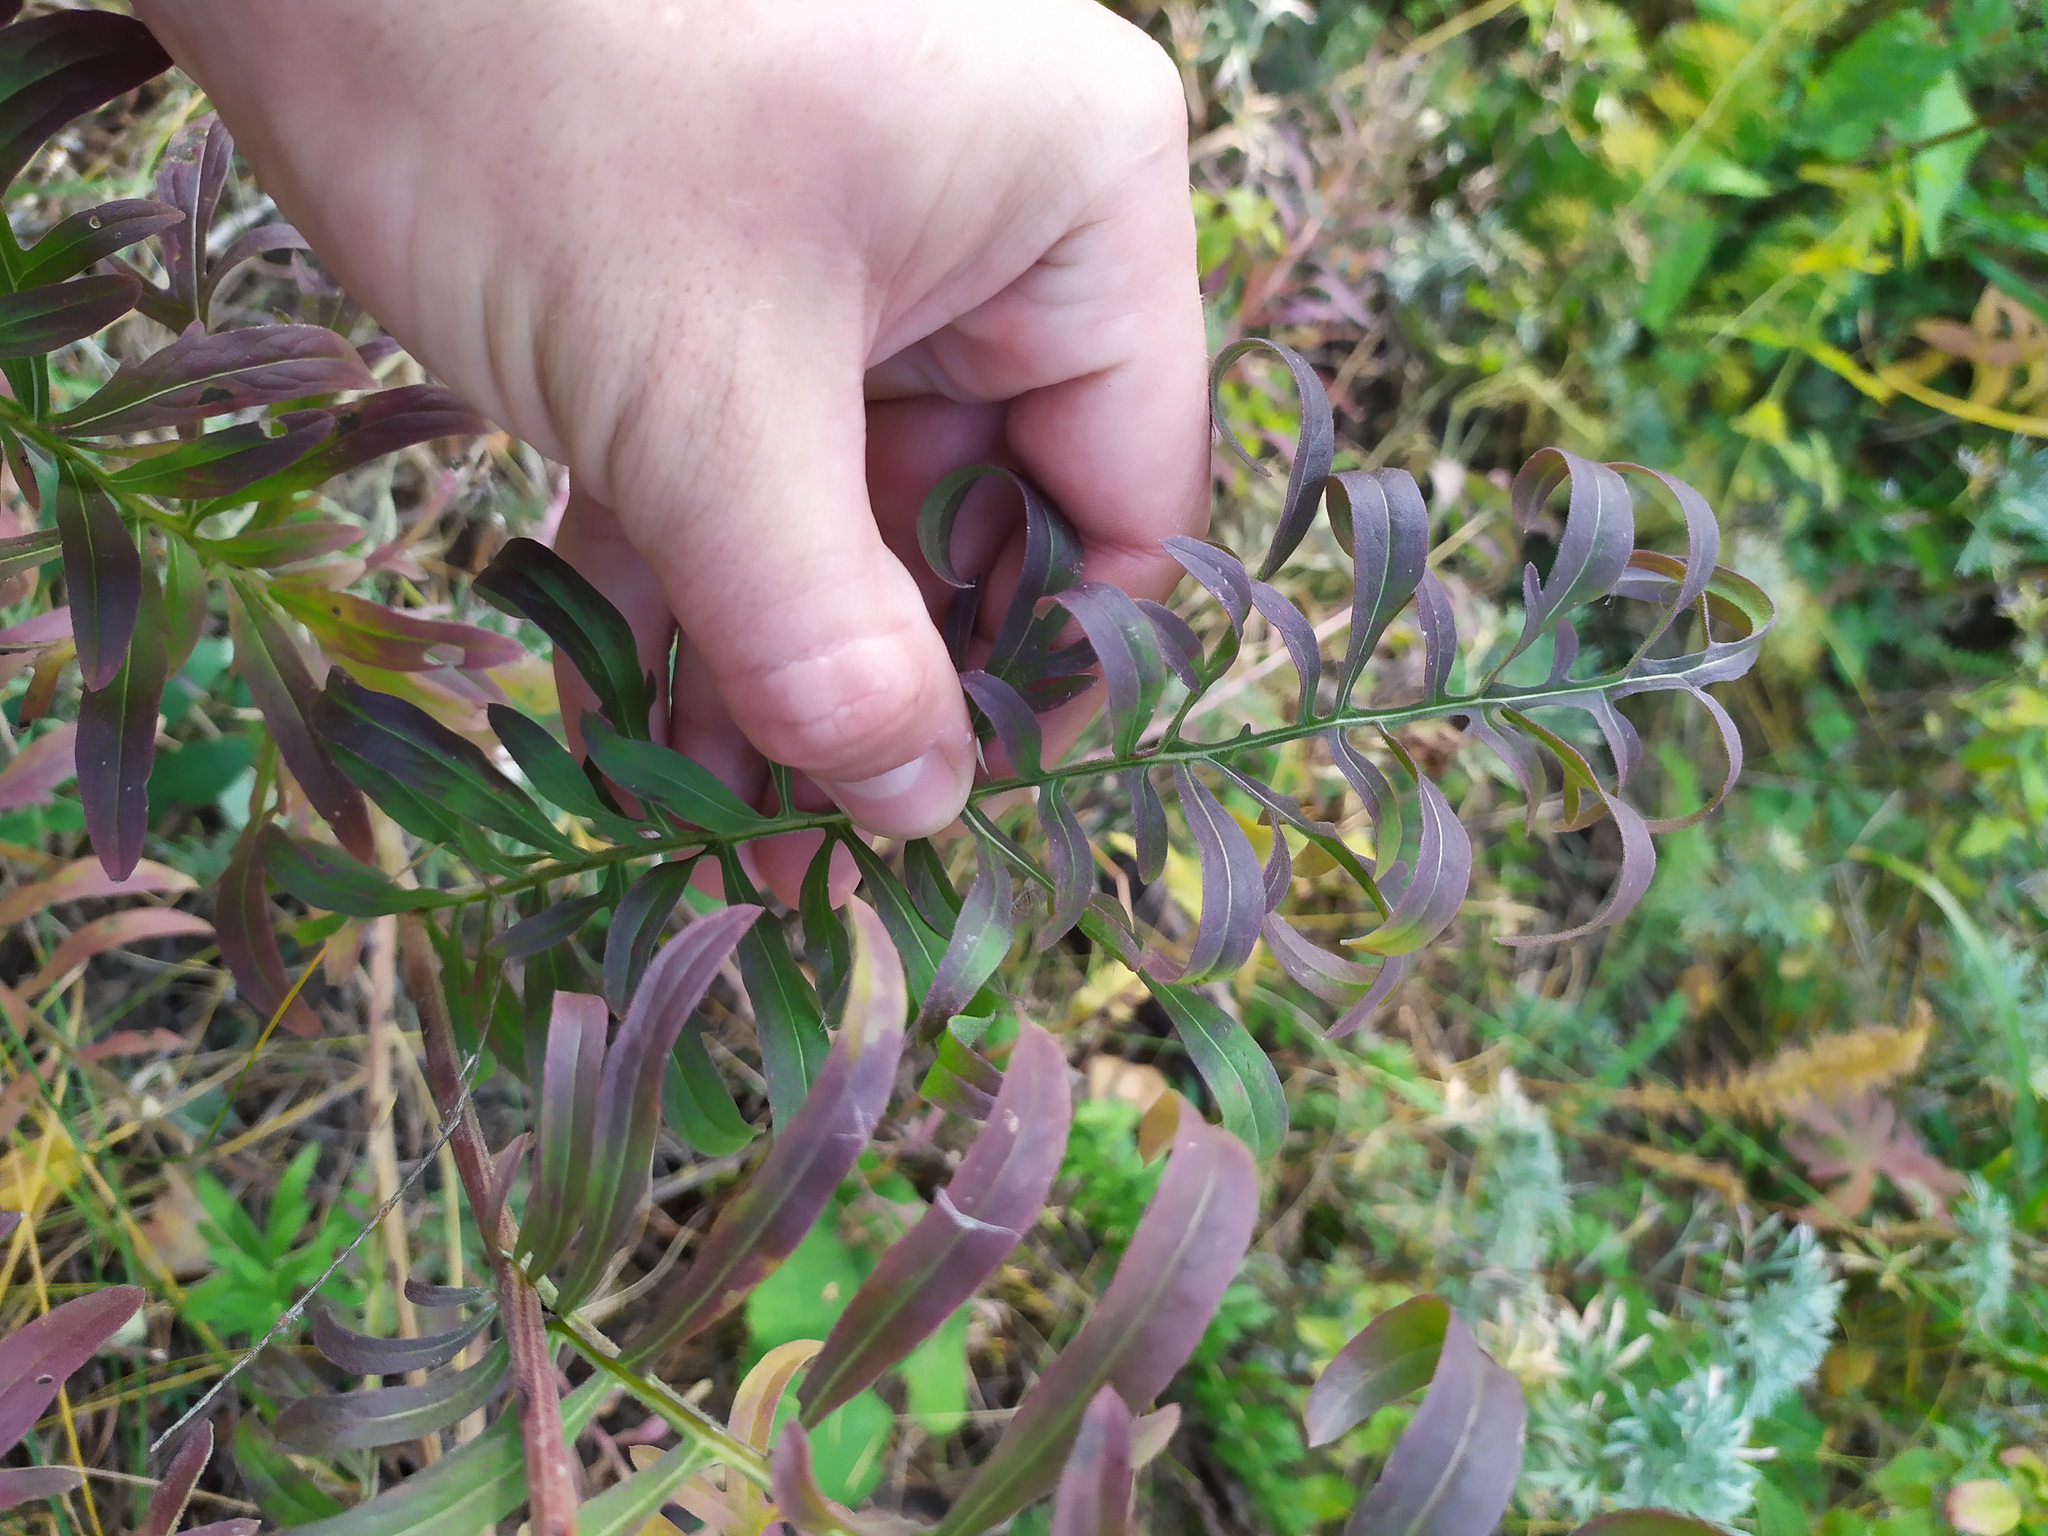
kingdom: Plantae
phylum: Tracheophyta
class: Magnoliopsida
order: Asterales
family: Asteraceae
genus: Centaurea
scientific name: Centaurea scabiosa
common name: Greater knapweed
